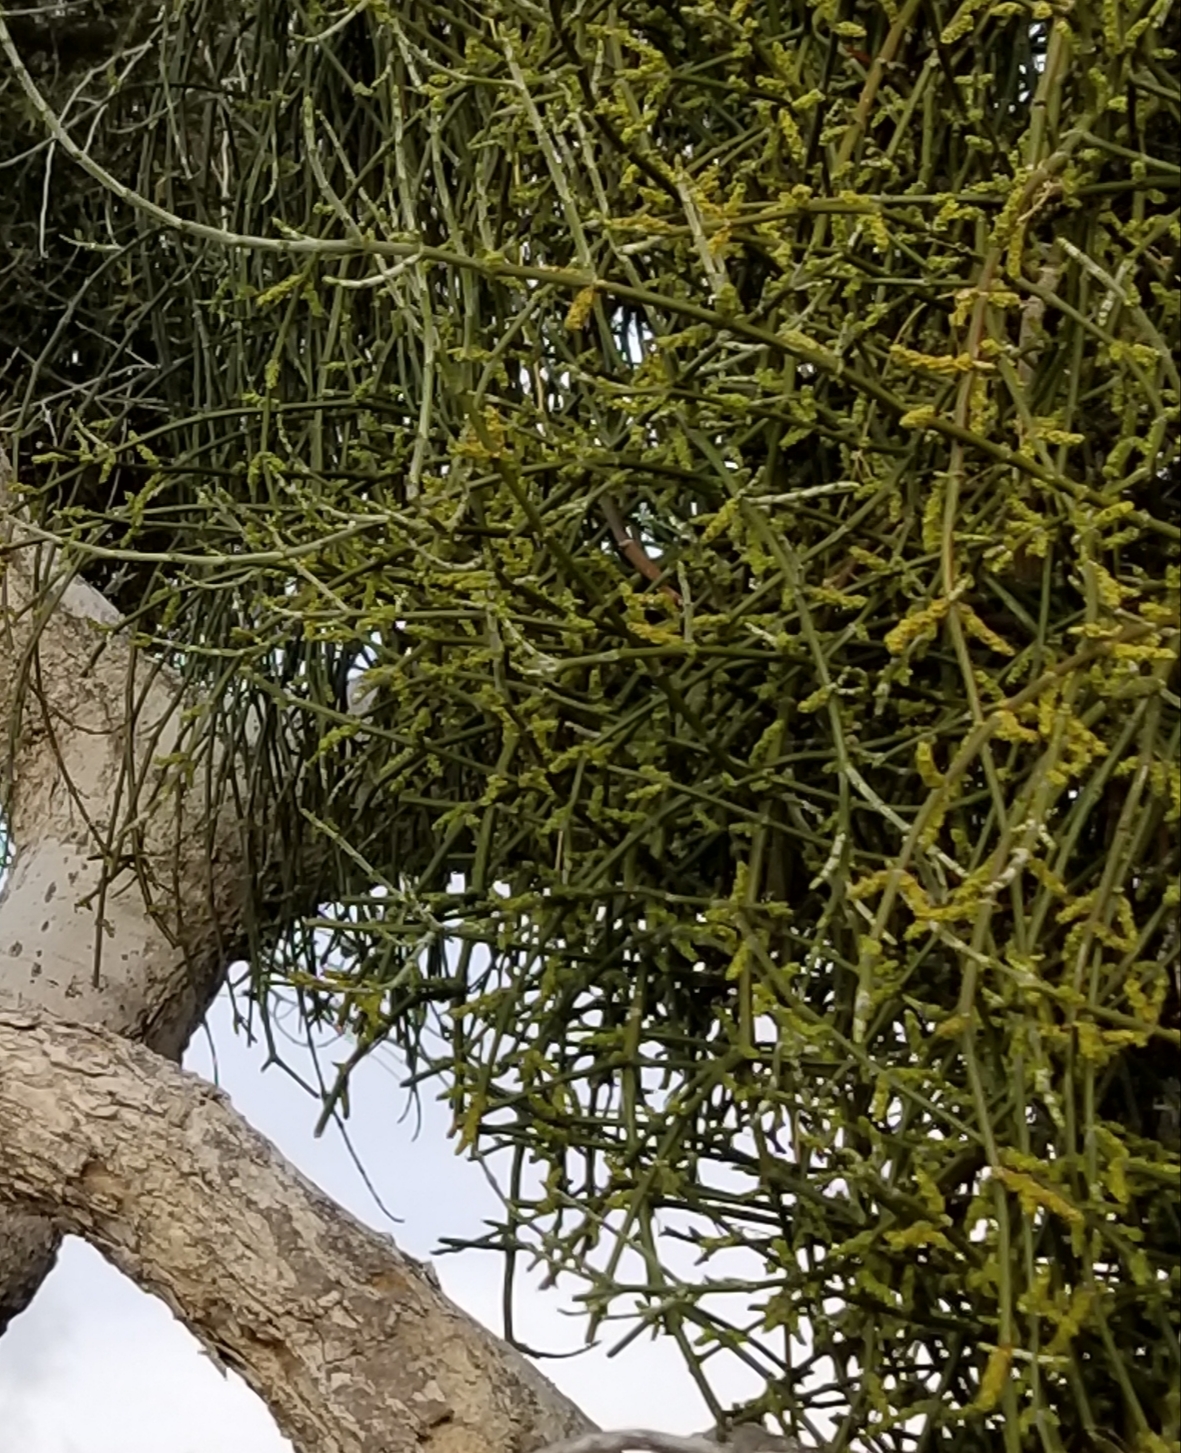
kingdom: Plantae
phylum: Tracheophyta
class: Magnoliopsida
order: Santalales
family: Viscaceae
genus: Phoradendron
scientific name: Phoradendron californicum
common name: Acacia mistletoe
